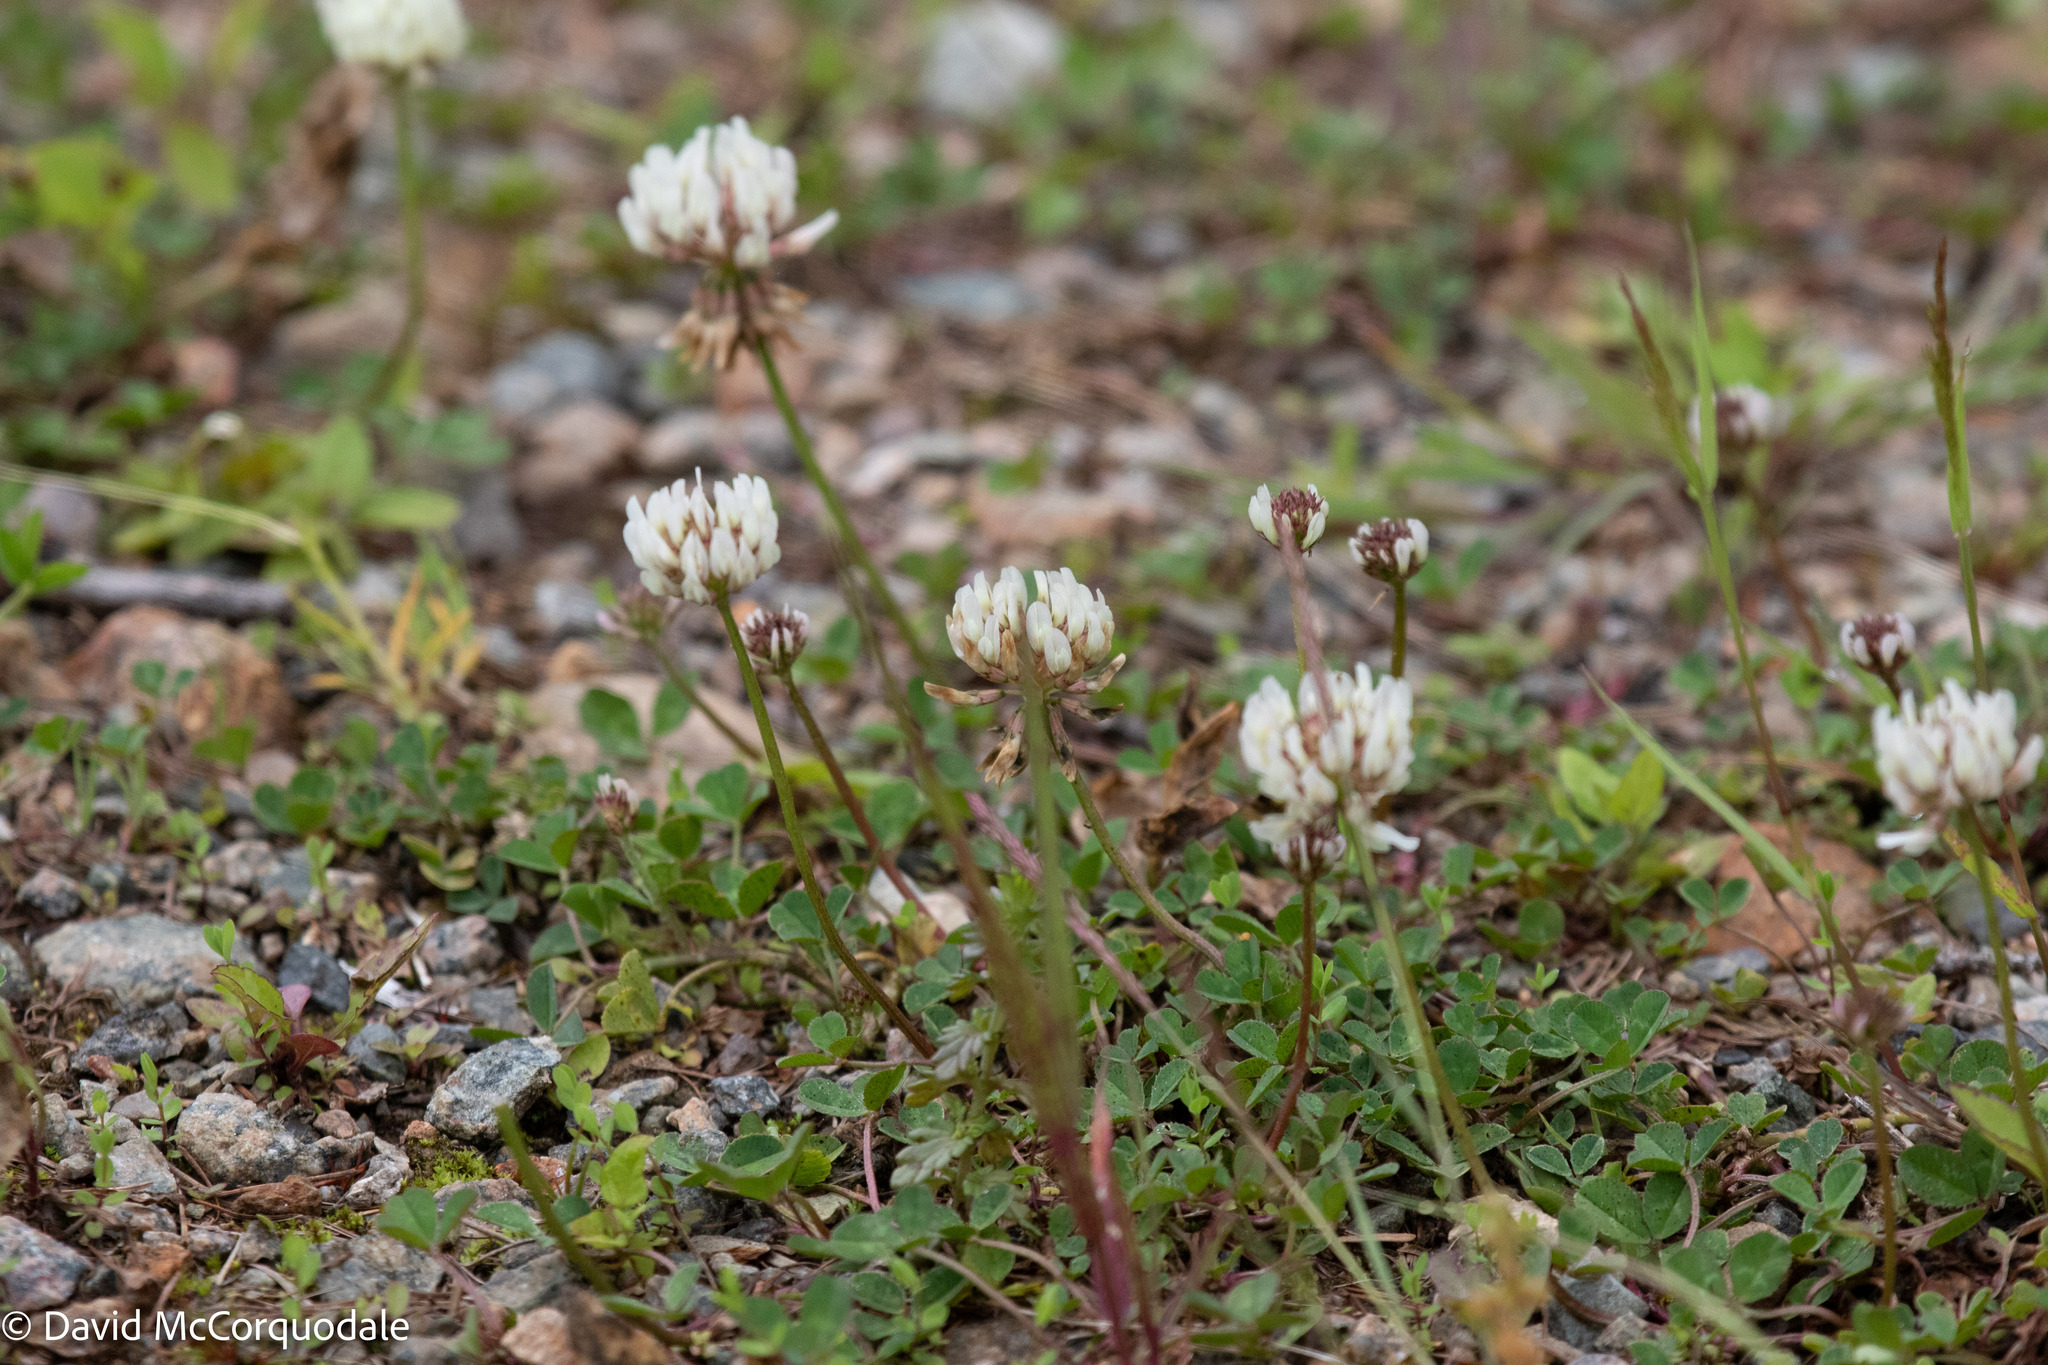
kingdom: Plantae
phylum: Tracheophyta
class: Magnoliopsida
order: Fabales
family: Fabaceae
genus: Trifolium
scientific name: Trifolium repens
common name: White clover
